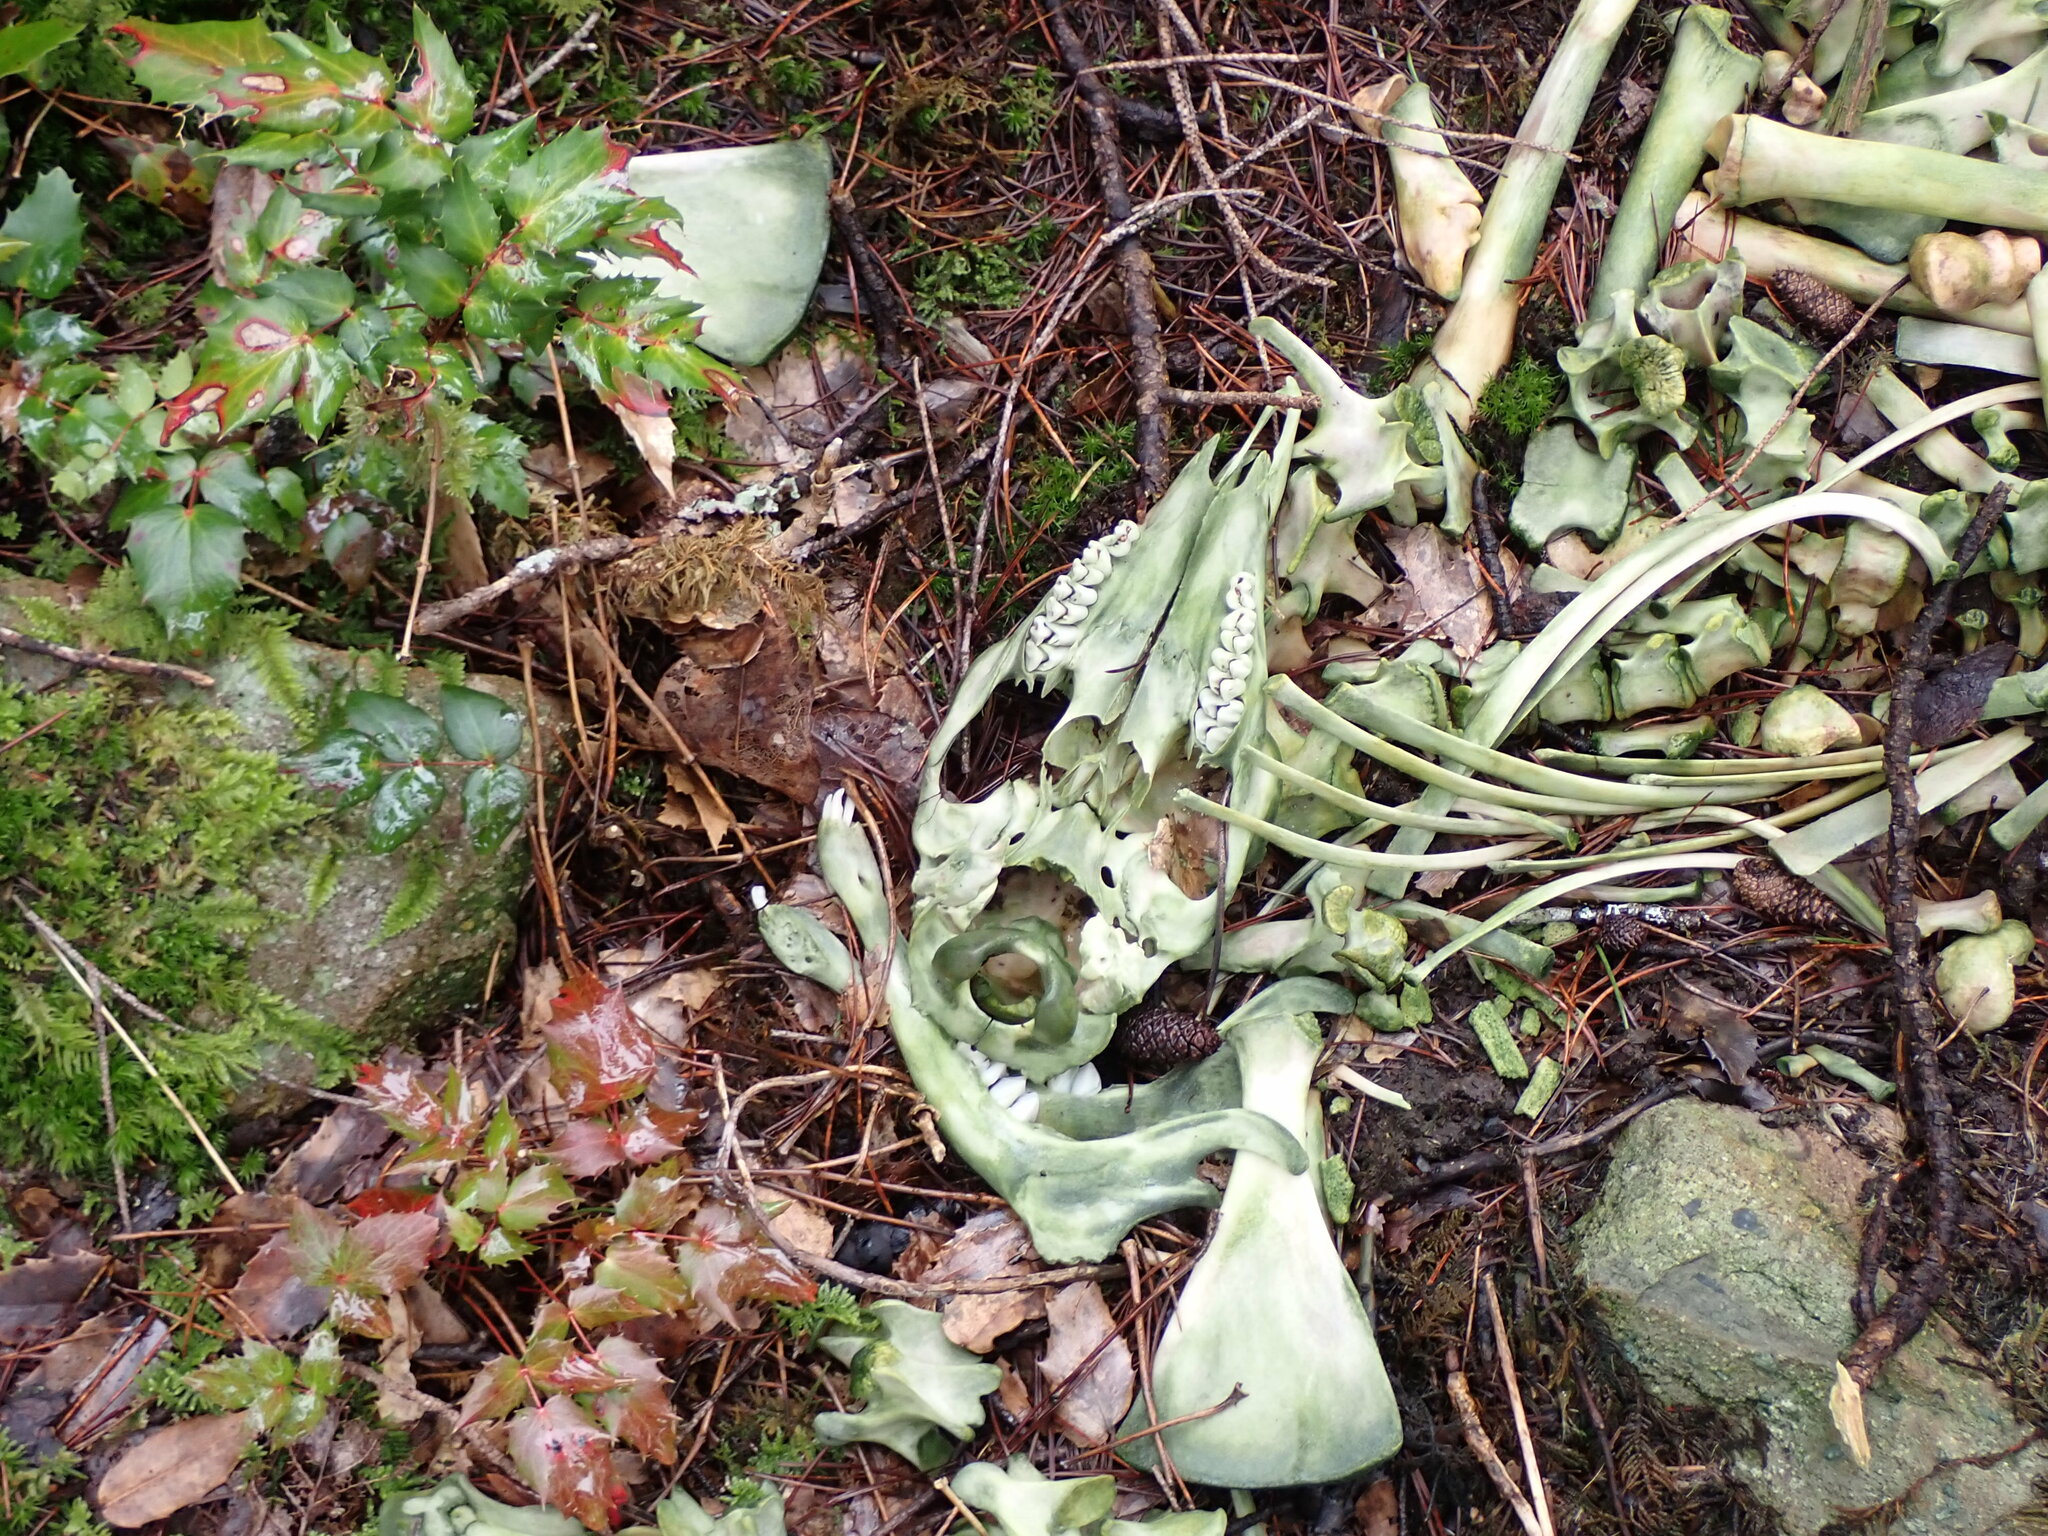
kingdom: Animalia
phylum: Chordata
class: Mammalia
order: Artiodactyla
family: Cervidae
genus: Odocoileus
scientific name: Odocoileus hemionus
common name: Mule deer
